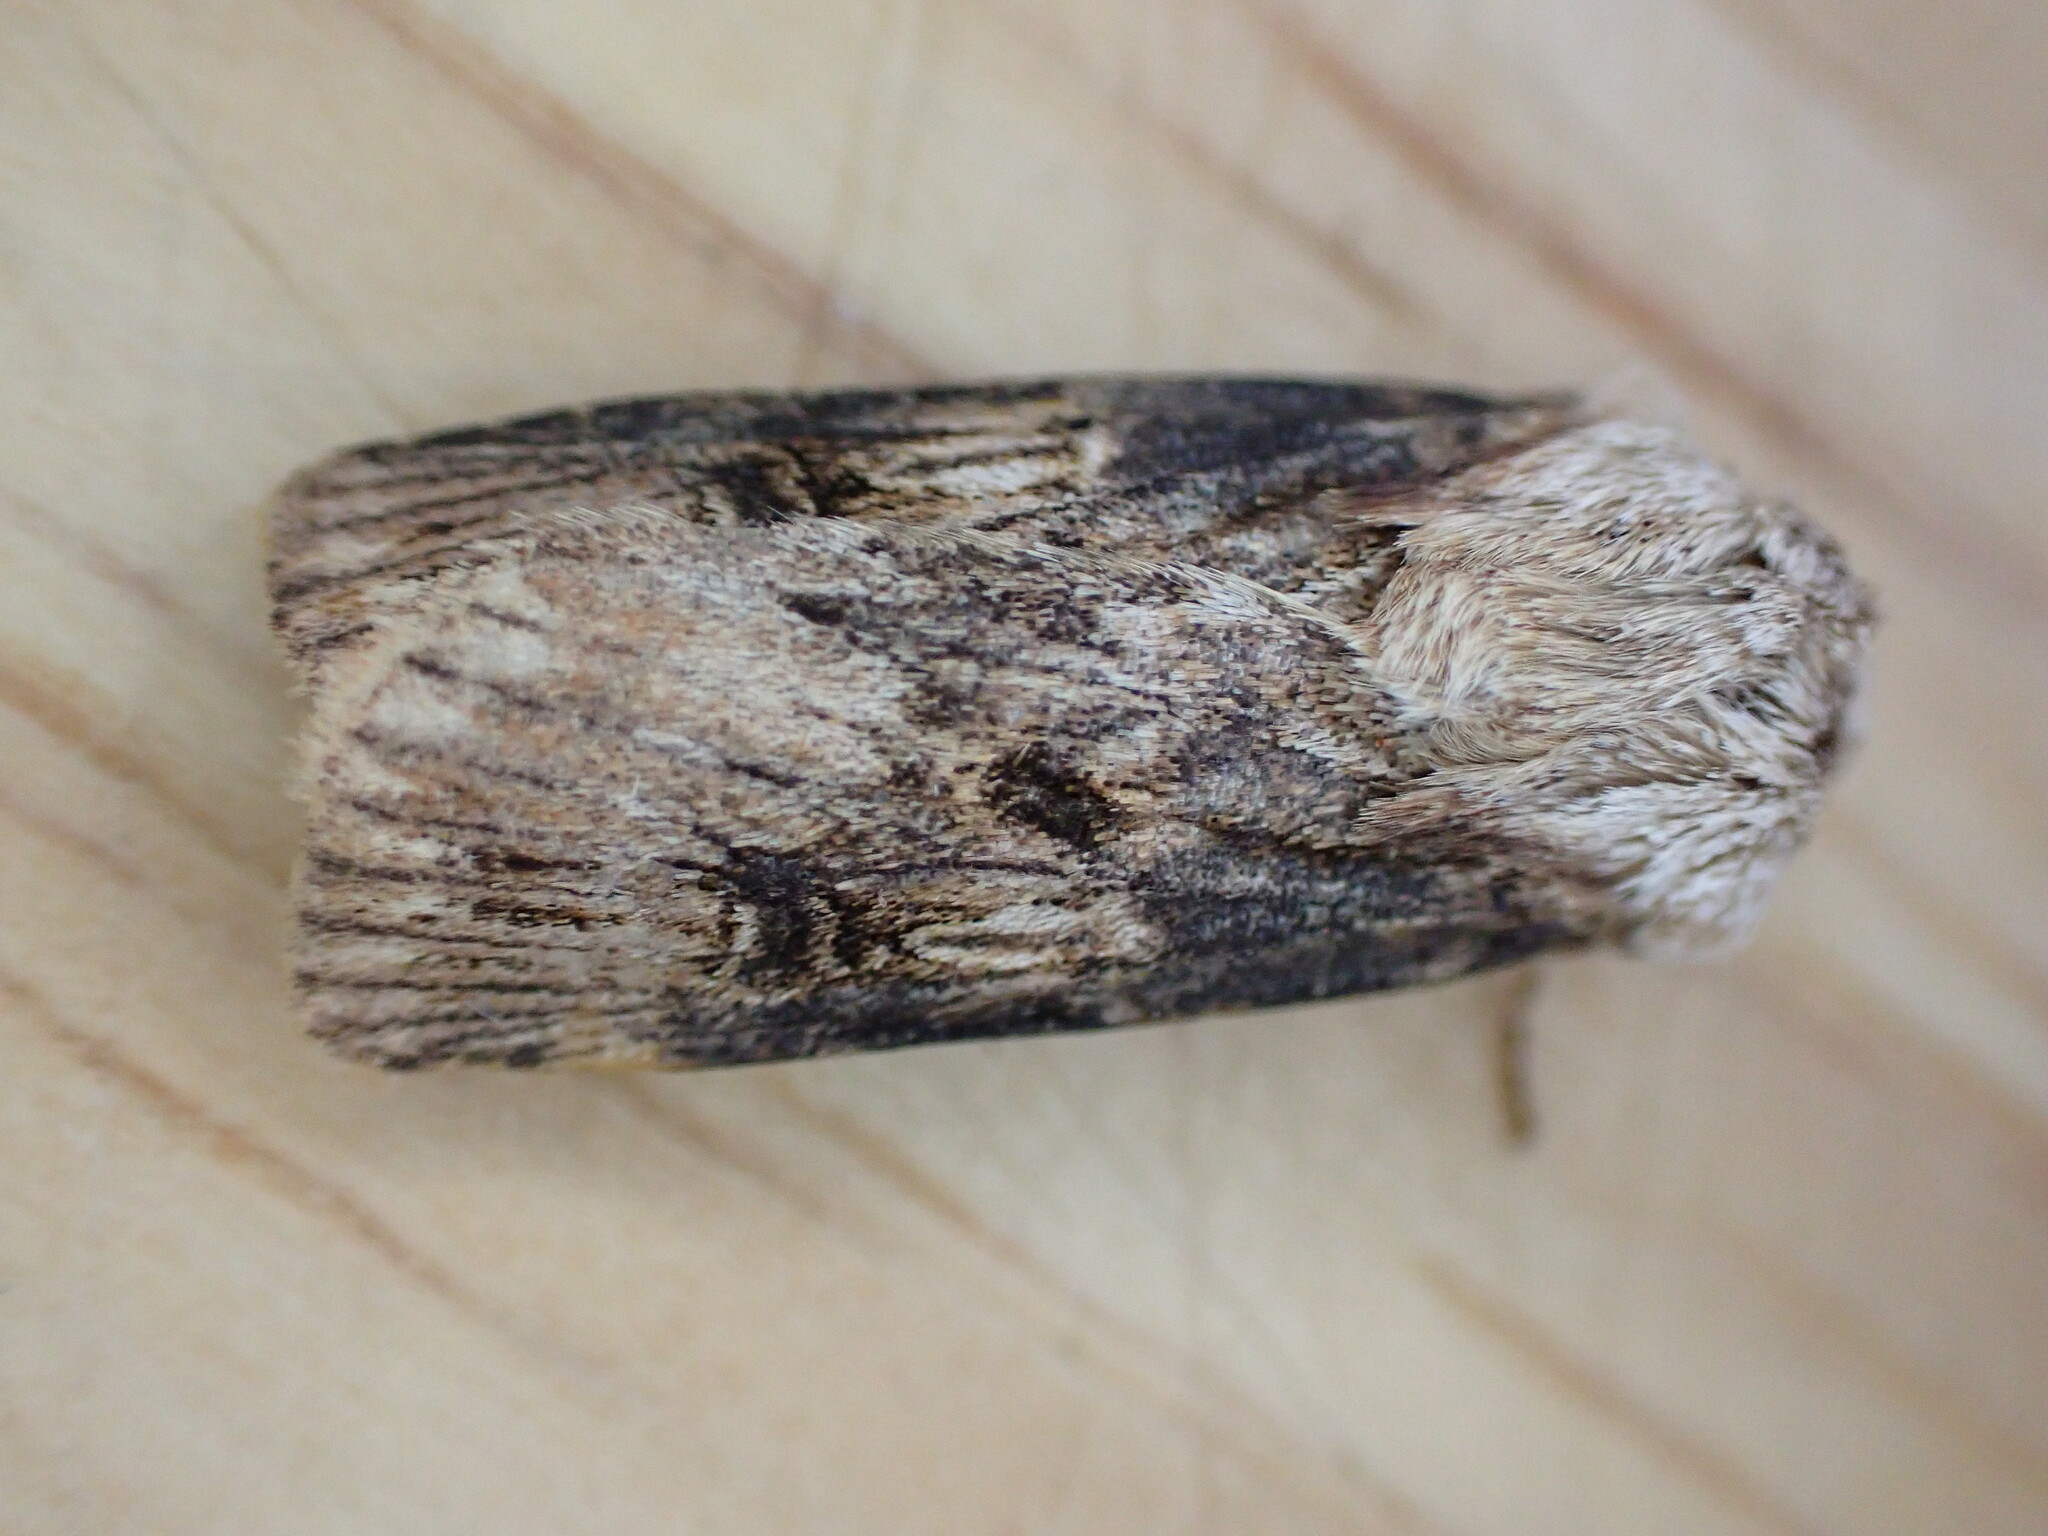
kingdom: Animalia
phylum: Arthropoda
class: Insecta
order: Lepidoptera
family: Noctuidae
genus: Agrotis
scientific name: Agrotis puta
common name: Shuttle-shaped dart
